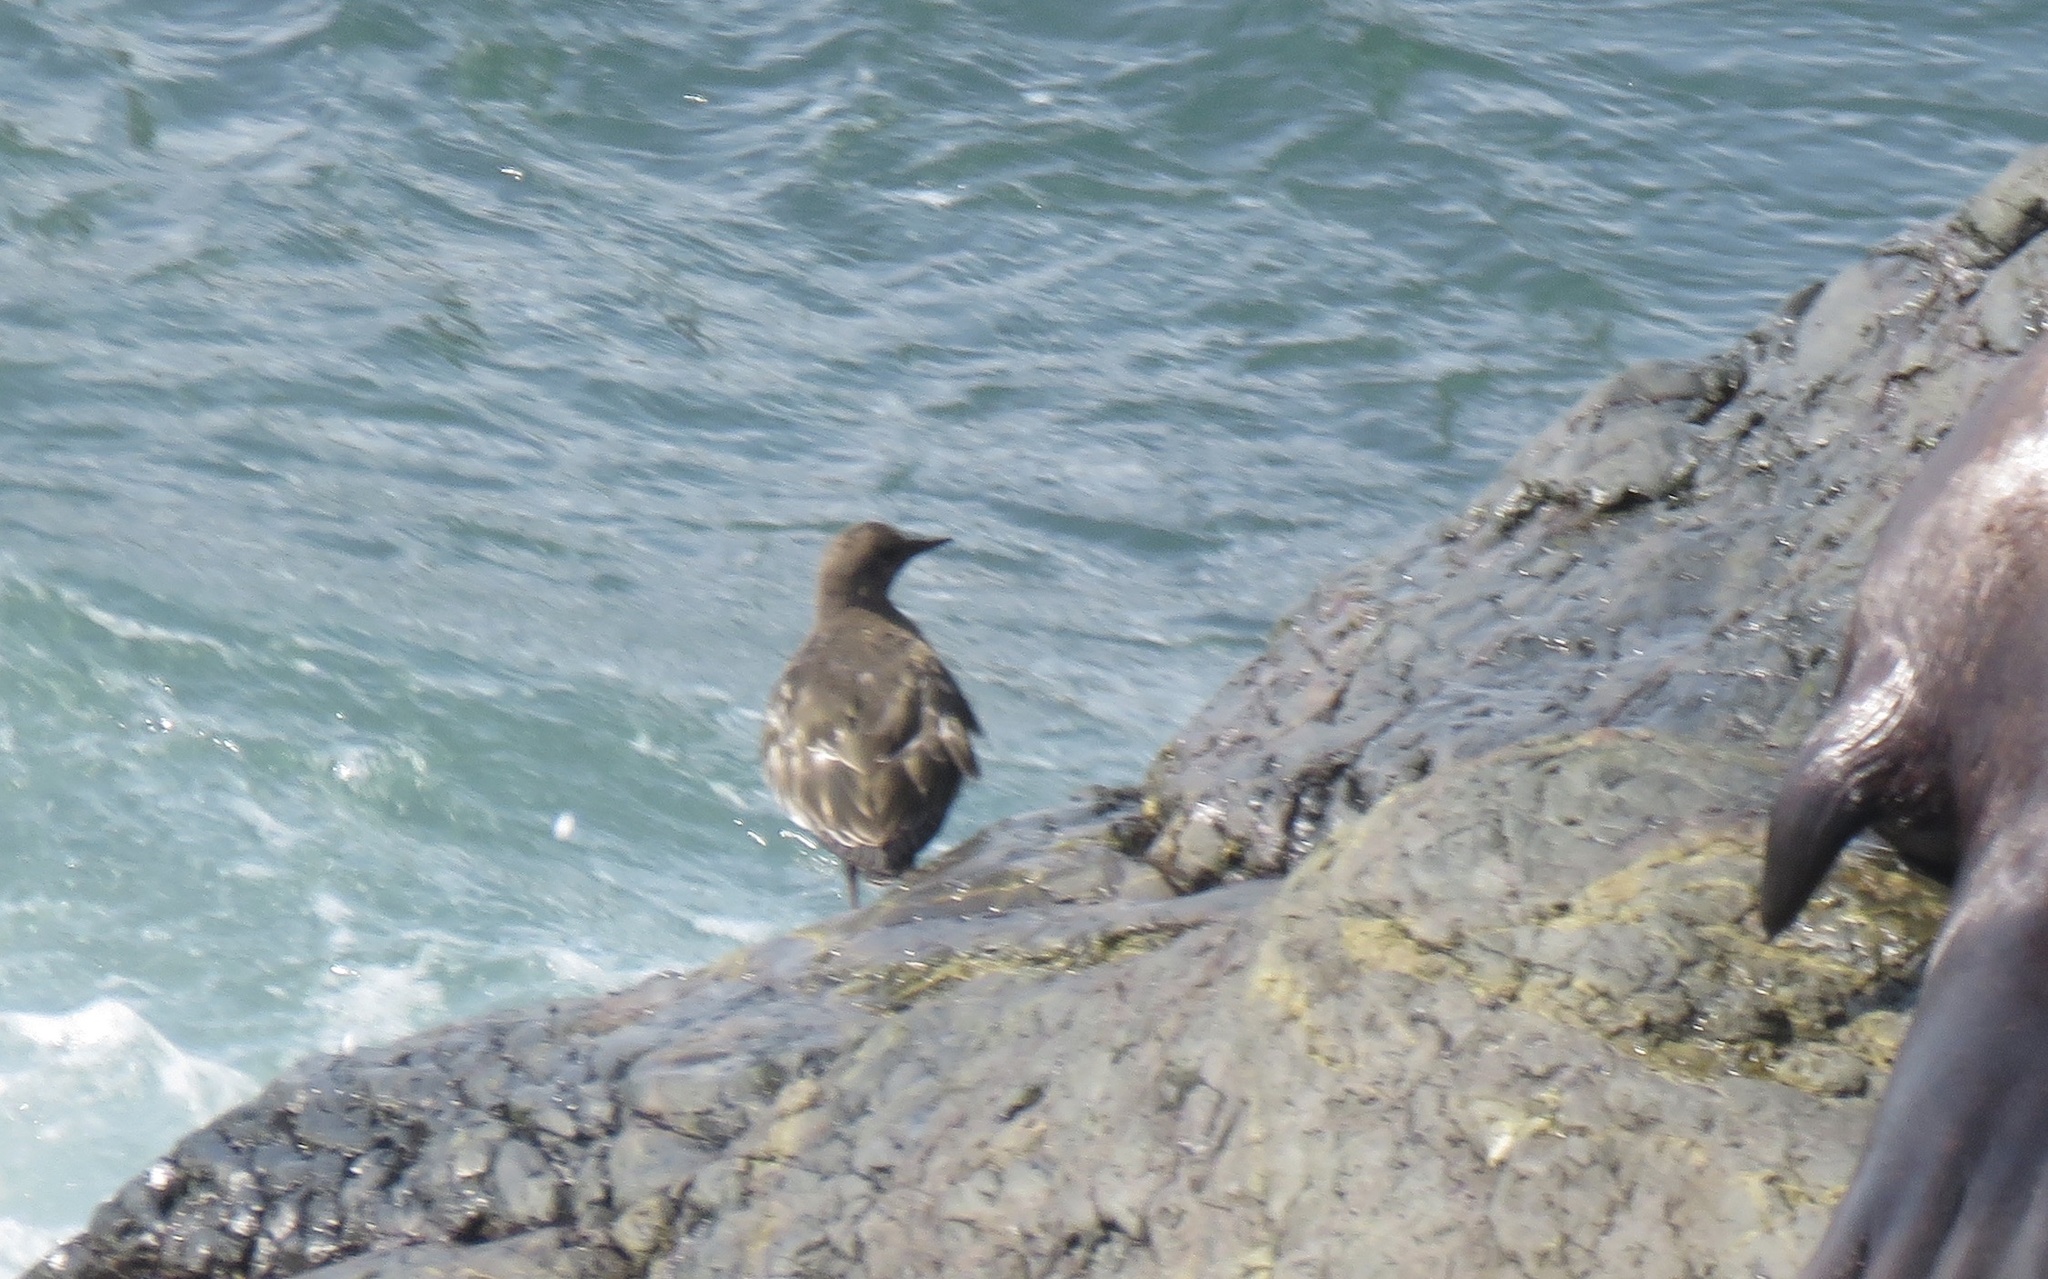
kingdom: Animalia
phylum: Chordata
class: Aves
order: Charadriiformes
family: Scolopacidae
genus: Arenaria
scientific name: Arenaria melanocephala
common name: Black turnstone
